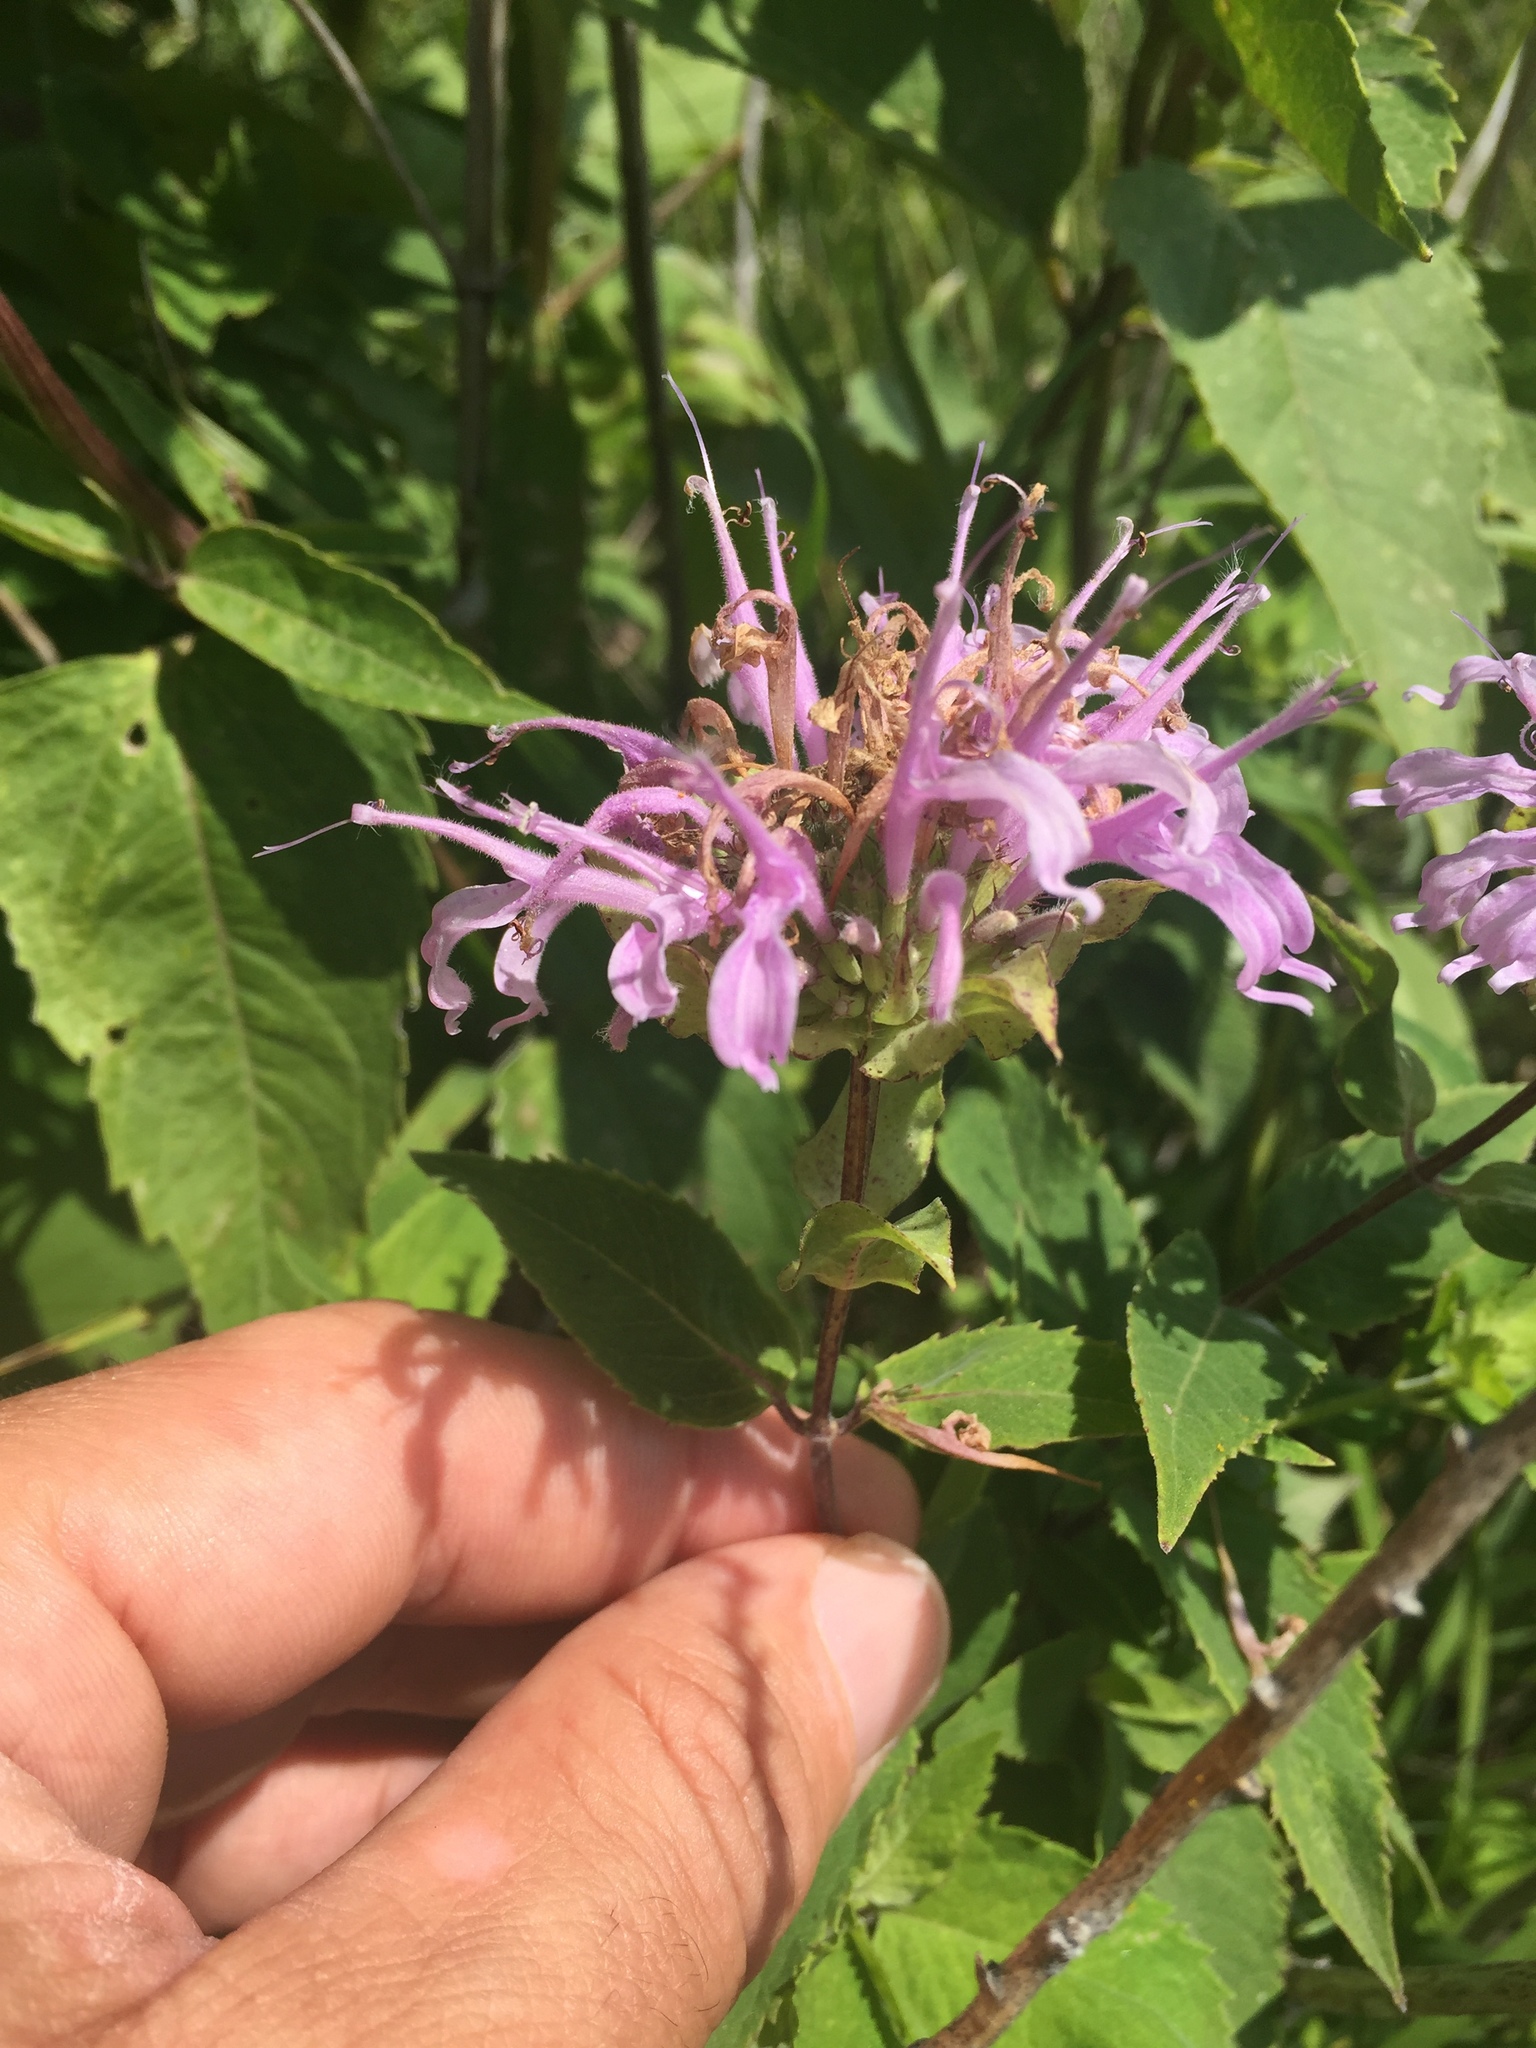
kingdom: Plantae
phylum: Tracheophyta
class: Magnoliopsida
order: Lamiales
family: Lamiaceae
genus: Monarda
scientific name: Monarda fistulosa
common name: Purple beebalm
